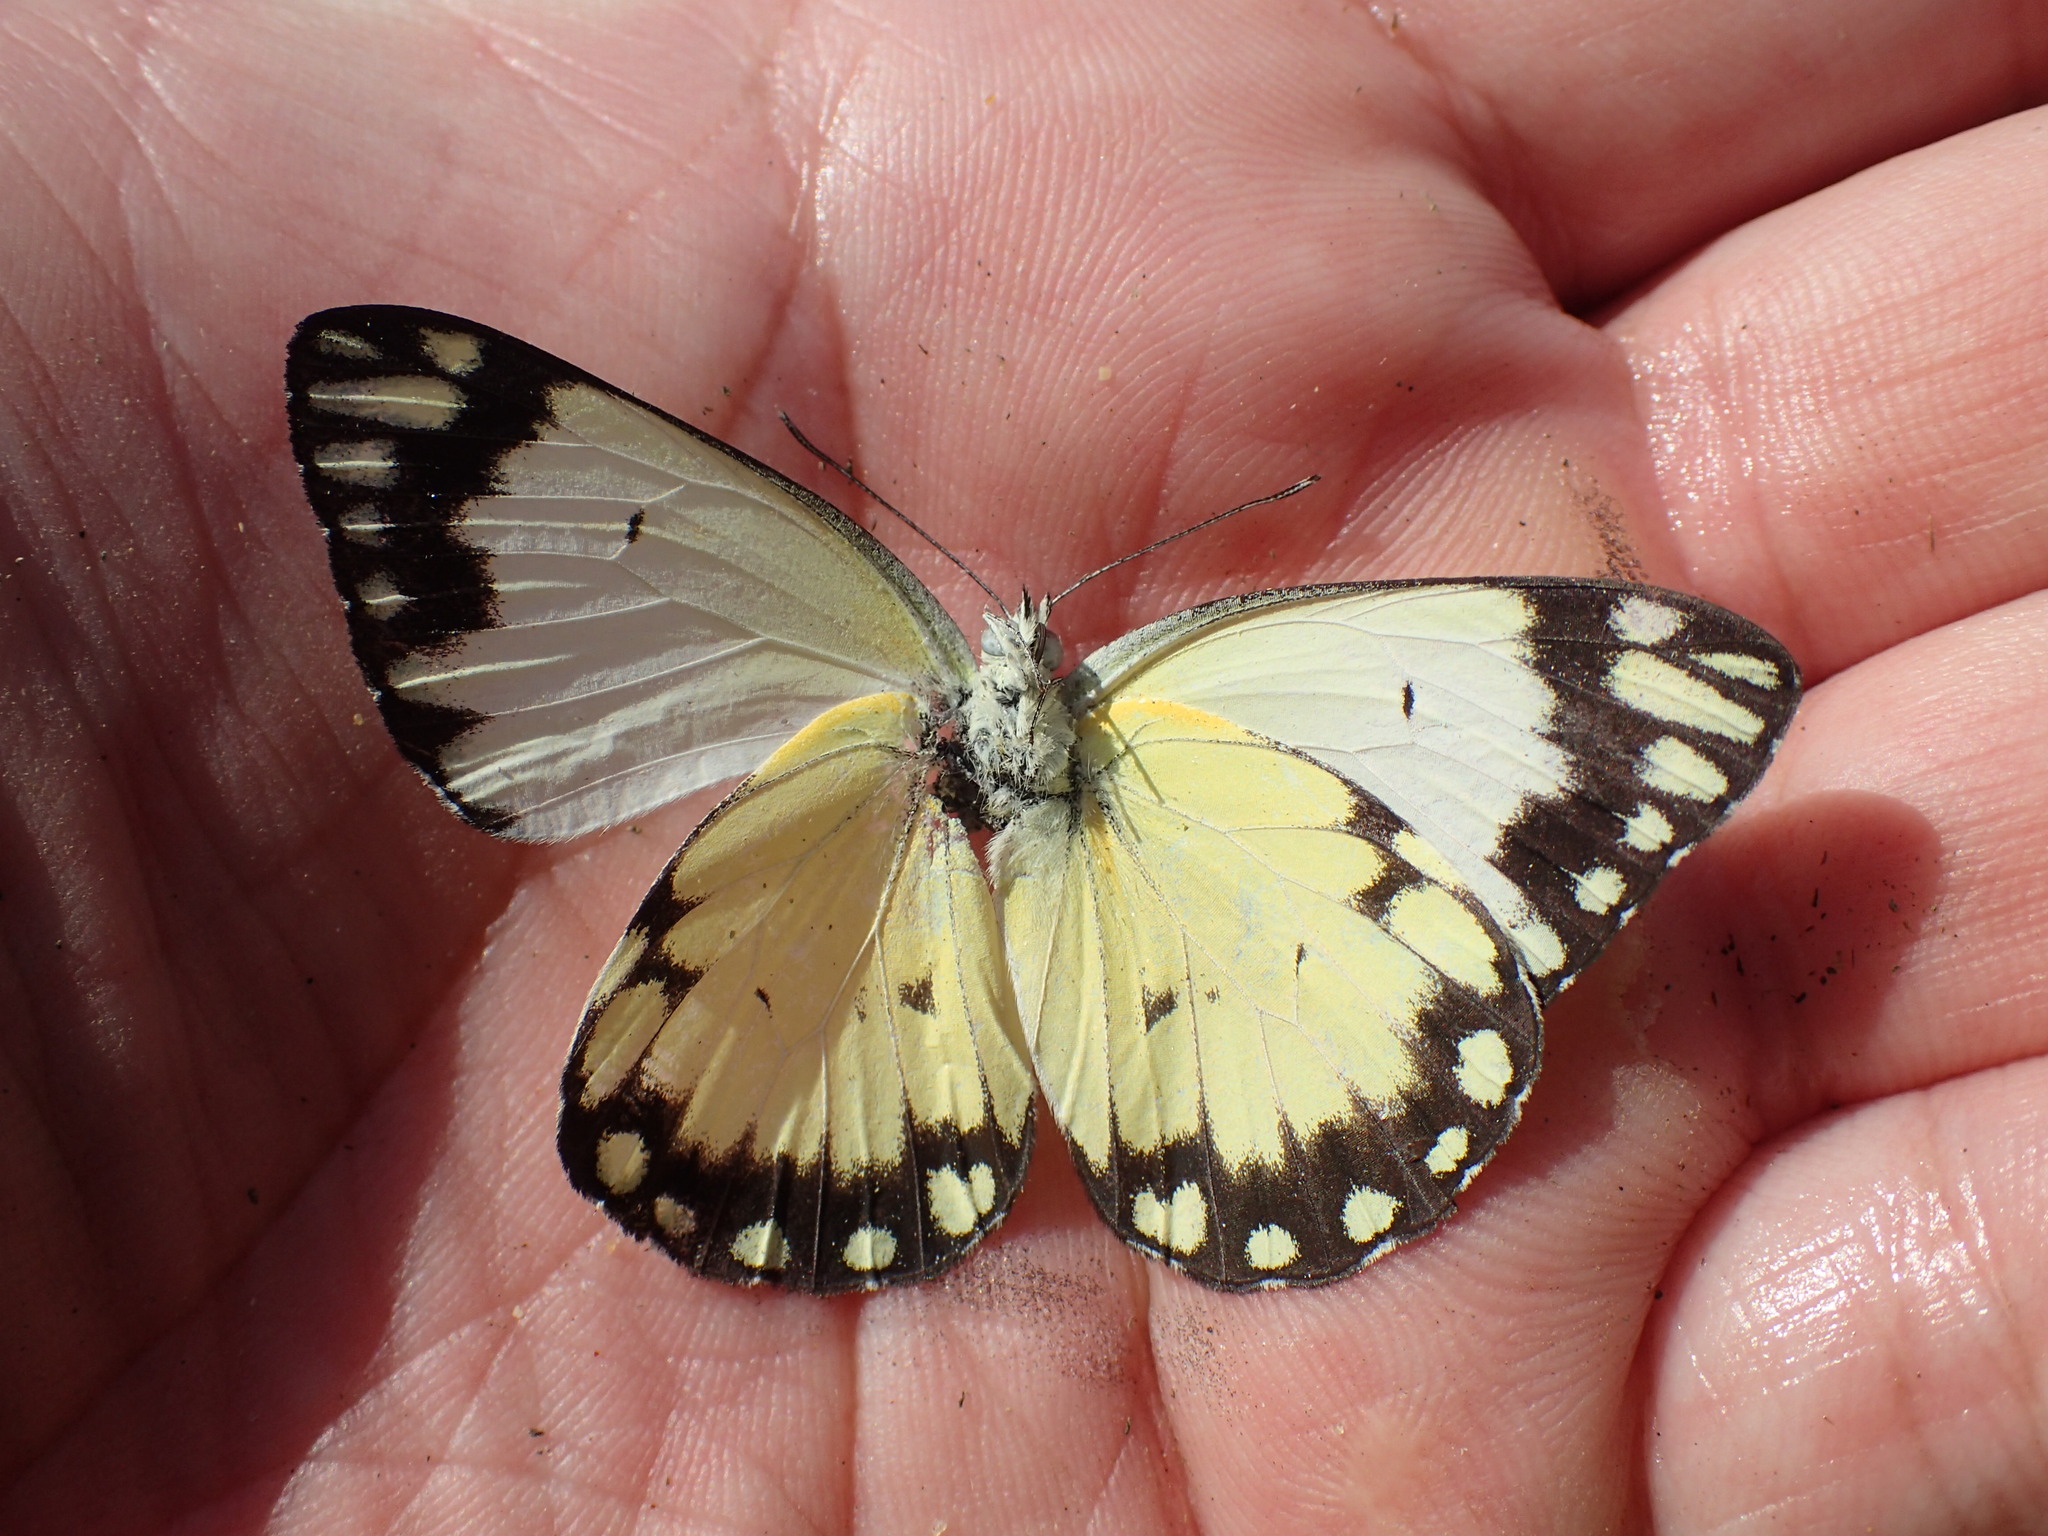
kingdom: Animalia
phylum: Arthropoda
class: Insecta
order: Lepidoptera
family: Pieridae
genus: Belenois
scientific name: Belenois creona
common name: African caper white
